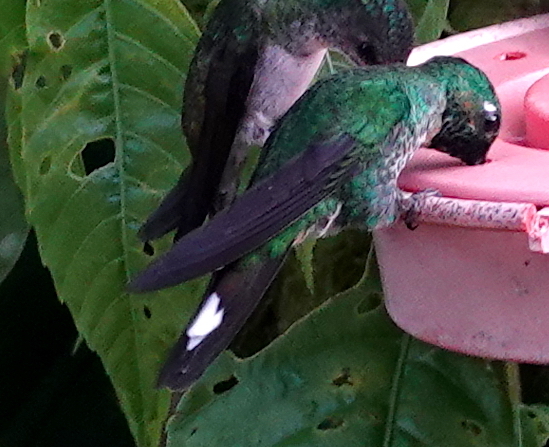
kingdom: Animalia
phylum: Chordata
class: Aves
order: Apodiformes
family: Trochilidae
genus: Urosticte
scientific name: Urosticte ruficrissa
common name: Rufous-vented whitetip
